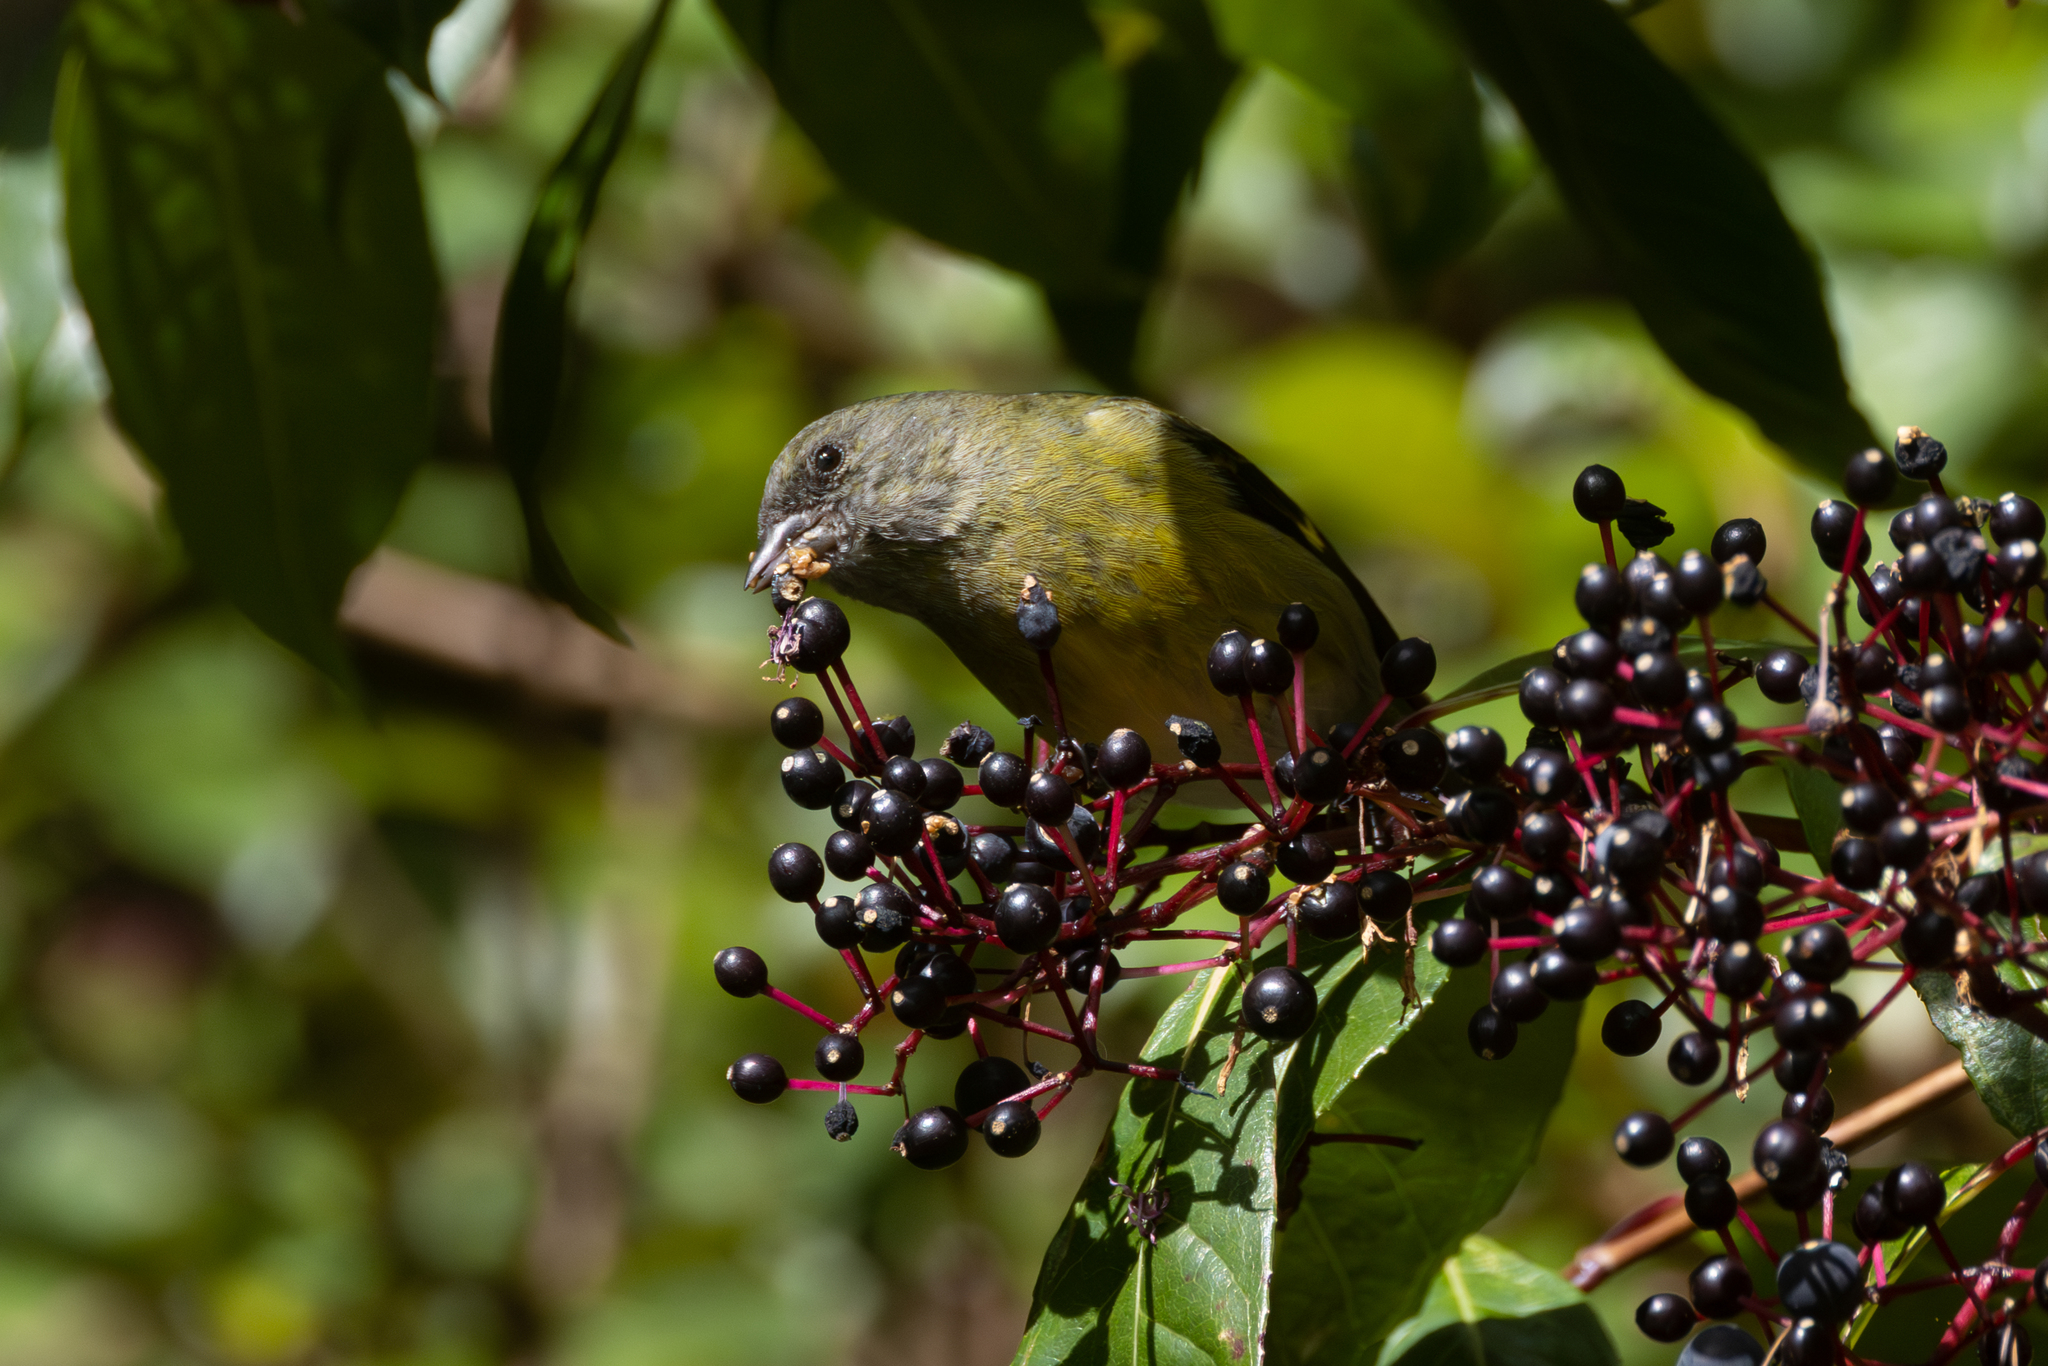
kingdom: Animalia
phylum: Chordata
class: Aves
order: Passeriformes
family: Fringillidae
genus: Spinus
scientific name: Spinus xanthogastrus
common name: Yellow-bellied siskin
